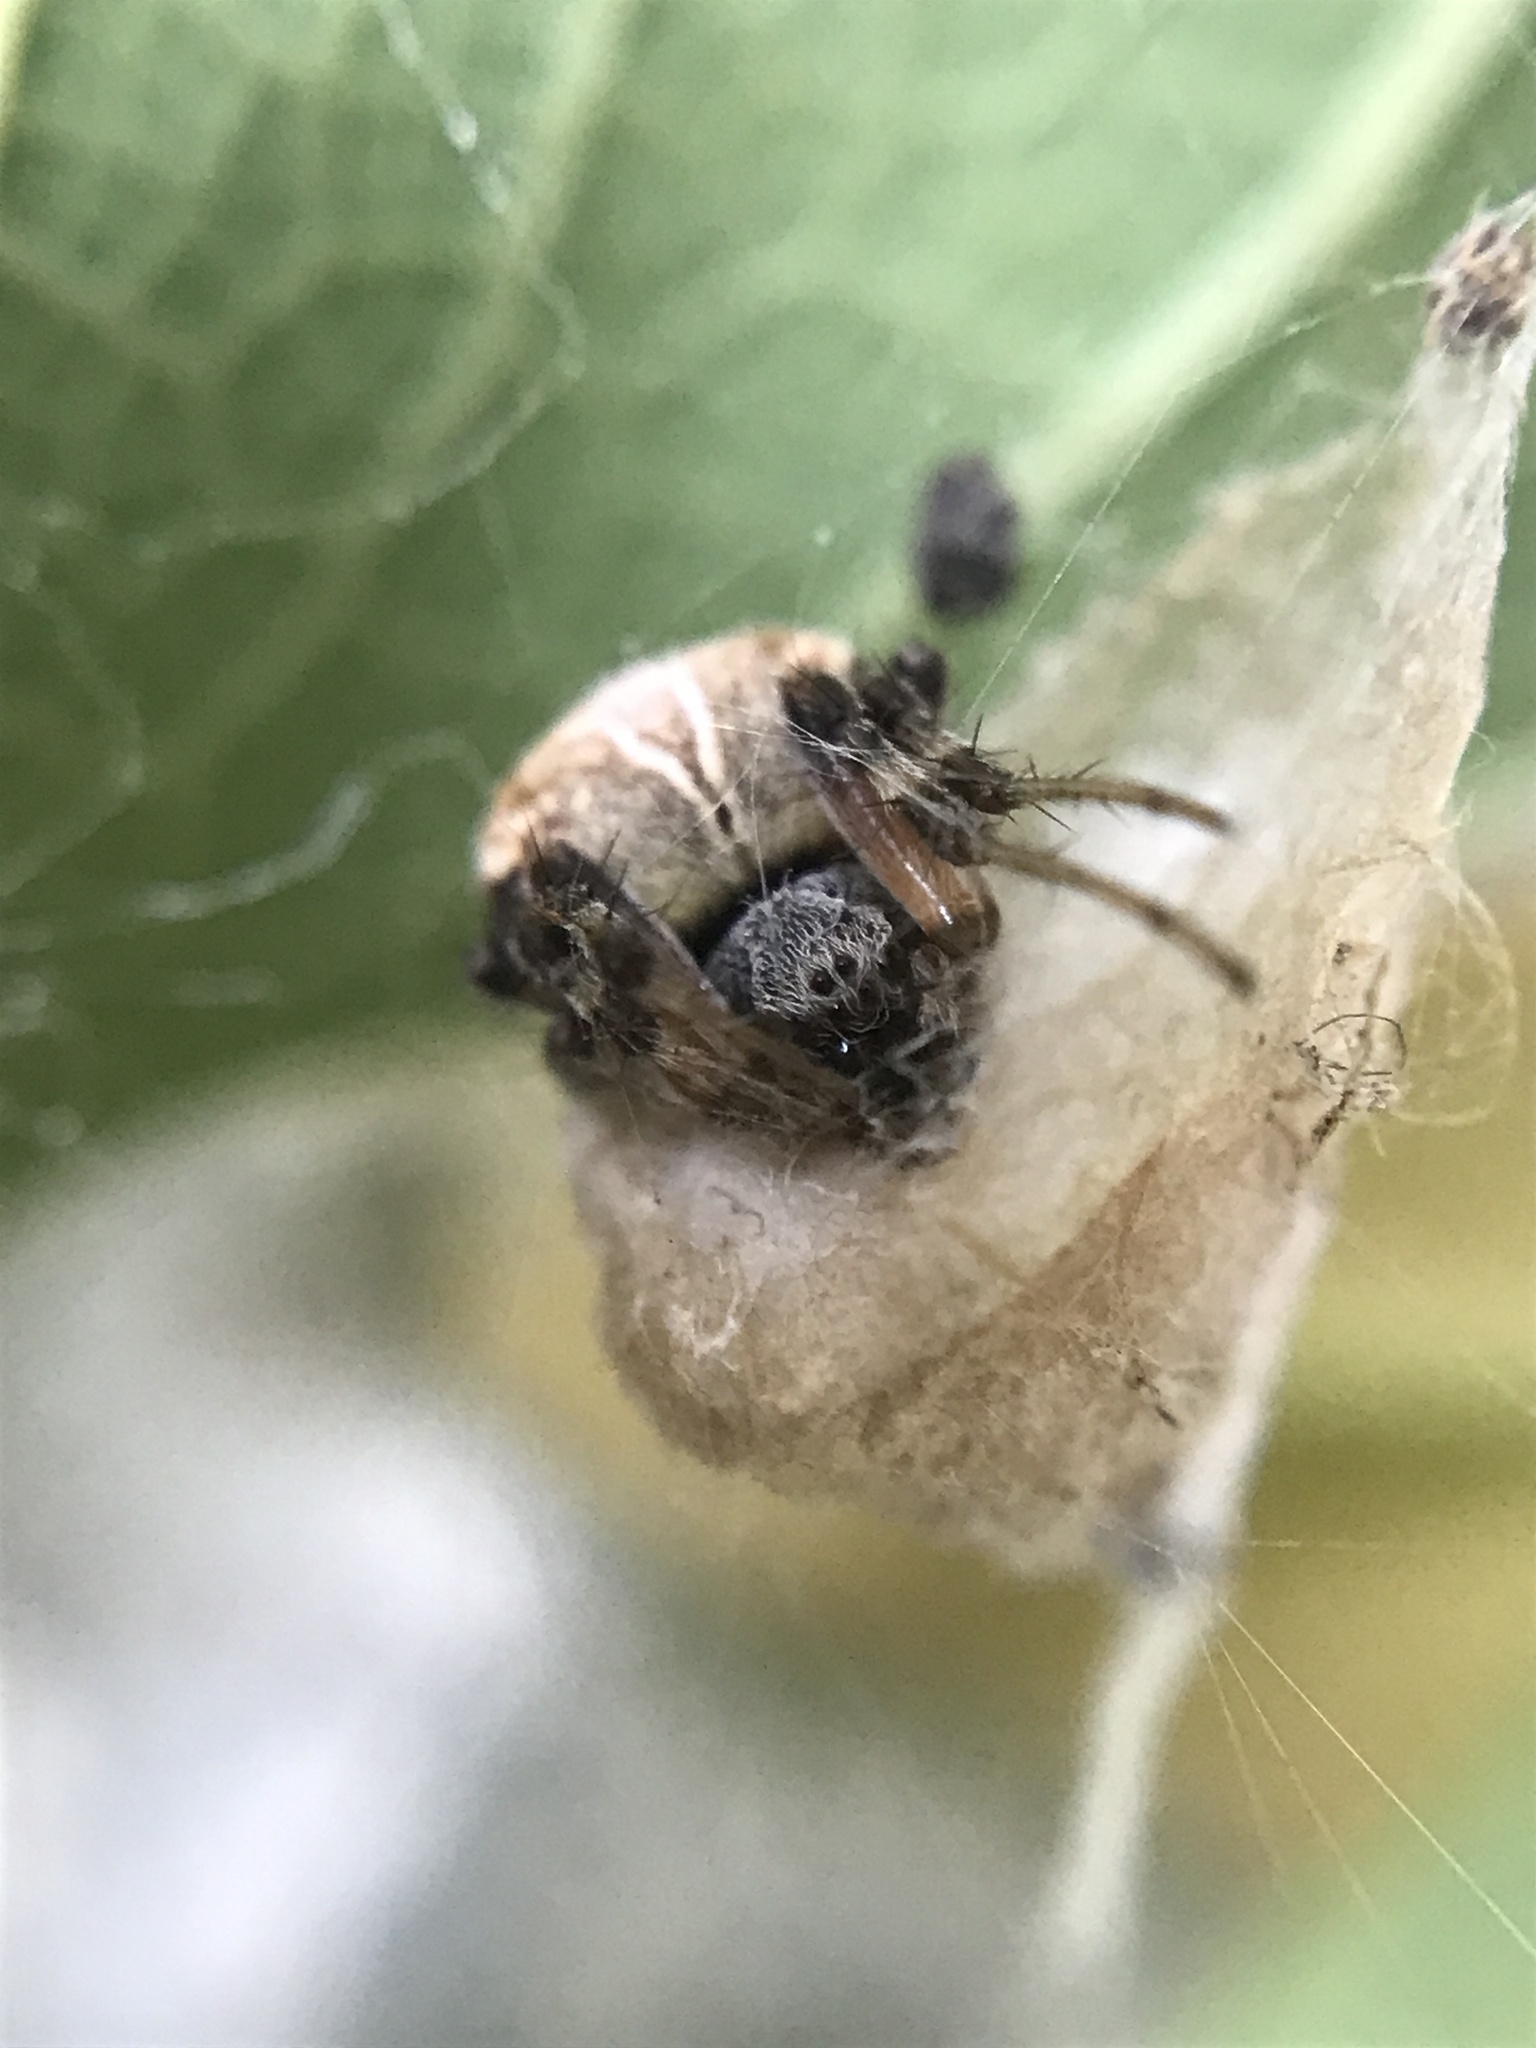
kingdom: Animalia
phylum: Arthropoda
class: Arachnida
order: Araneae
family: Araneidae
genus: Metepeira
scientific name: Metepeira
